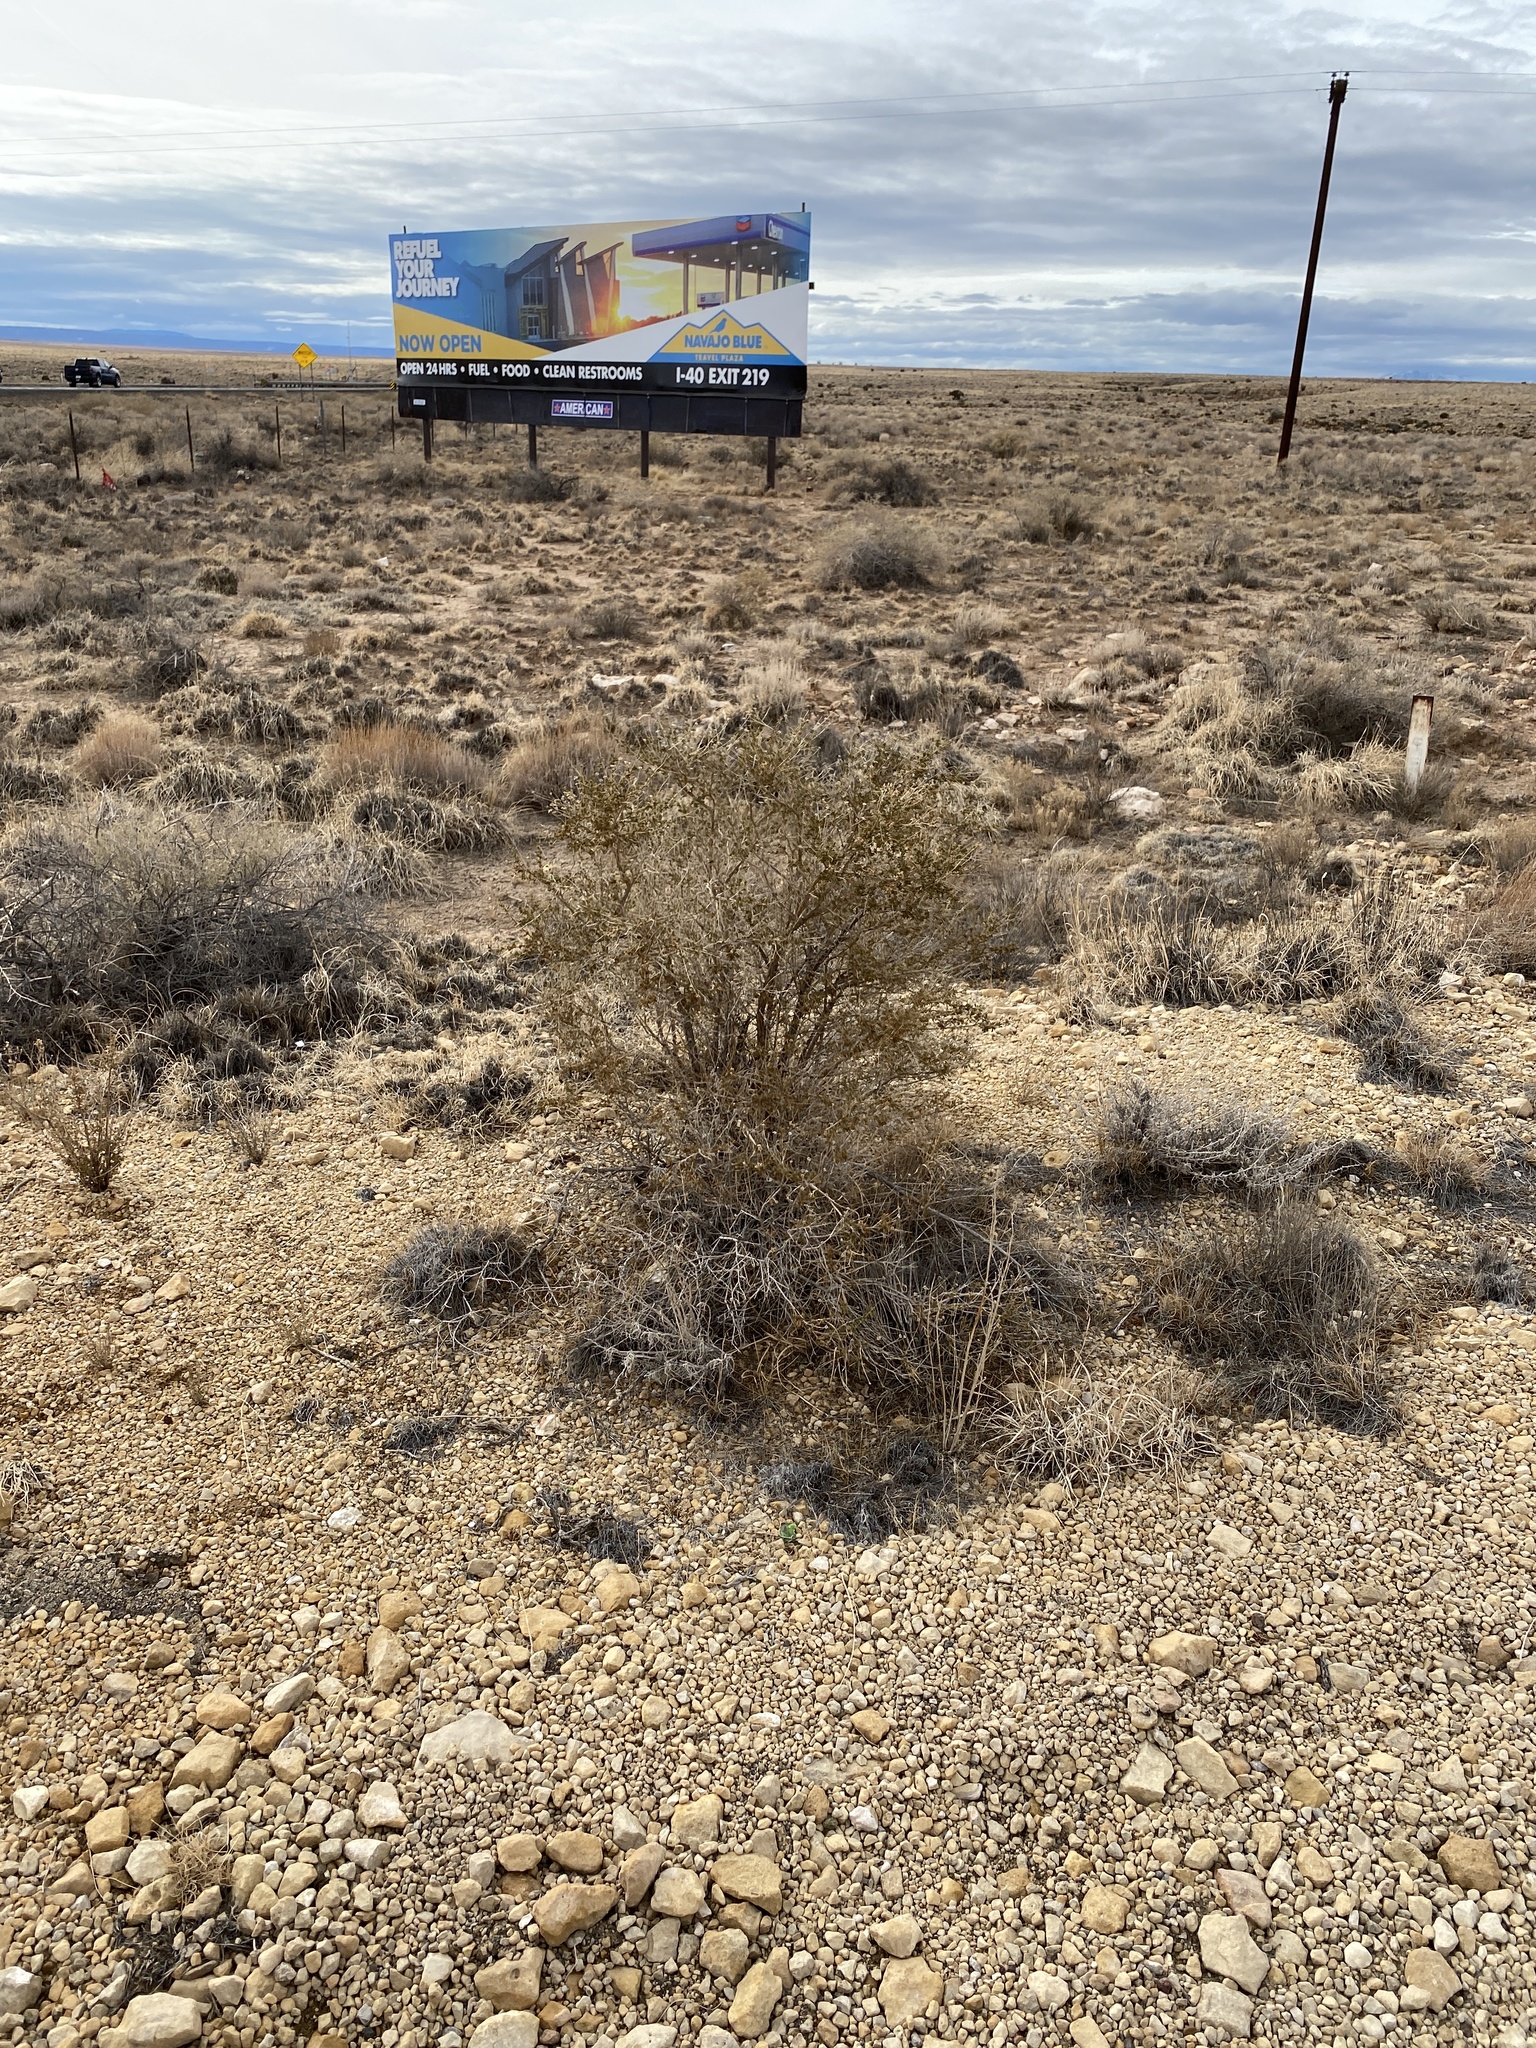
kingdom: Plantae
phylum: Tracheophyta
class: Magnoliopsida
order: Rosales
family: Rosaceae
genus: Fallugia
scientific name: Fallugia paradoxa
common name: Apache-plume
